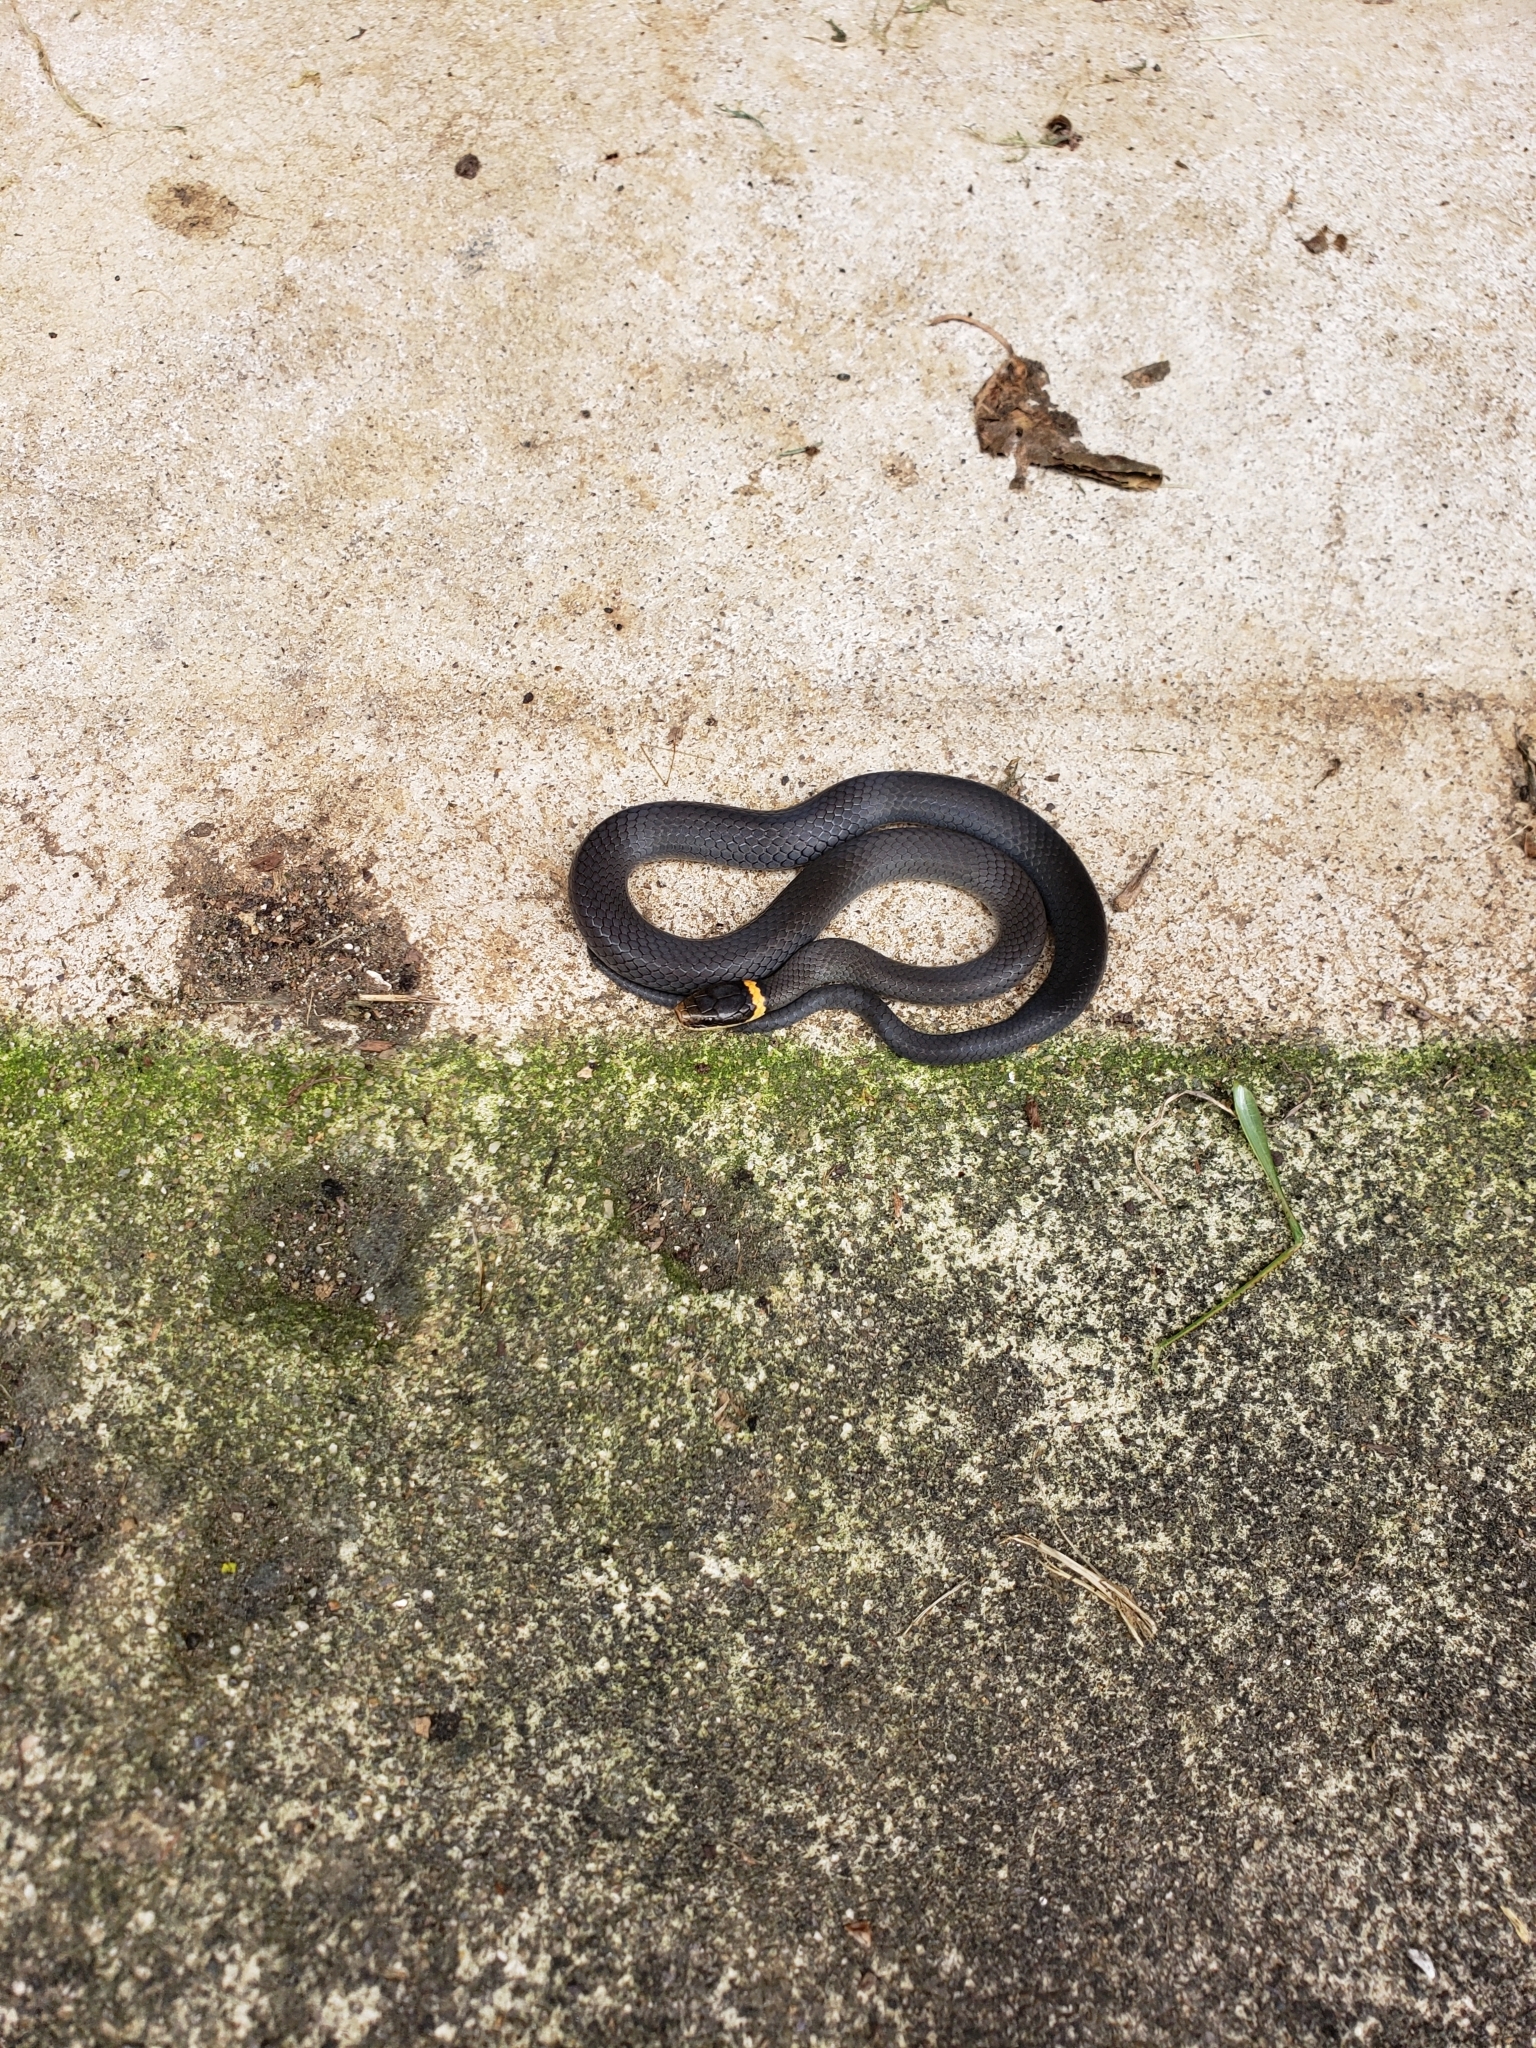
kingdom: Animalia
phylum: Chordata
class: Squamata
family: Colubridae
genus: Diadophis
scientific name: Diadophis punctatus
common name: Ringneck snake
